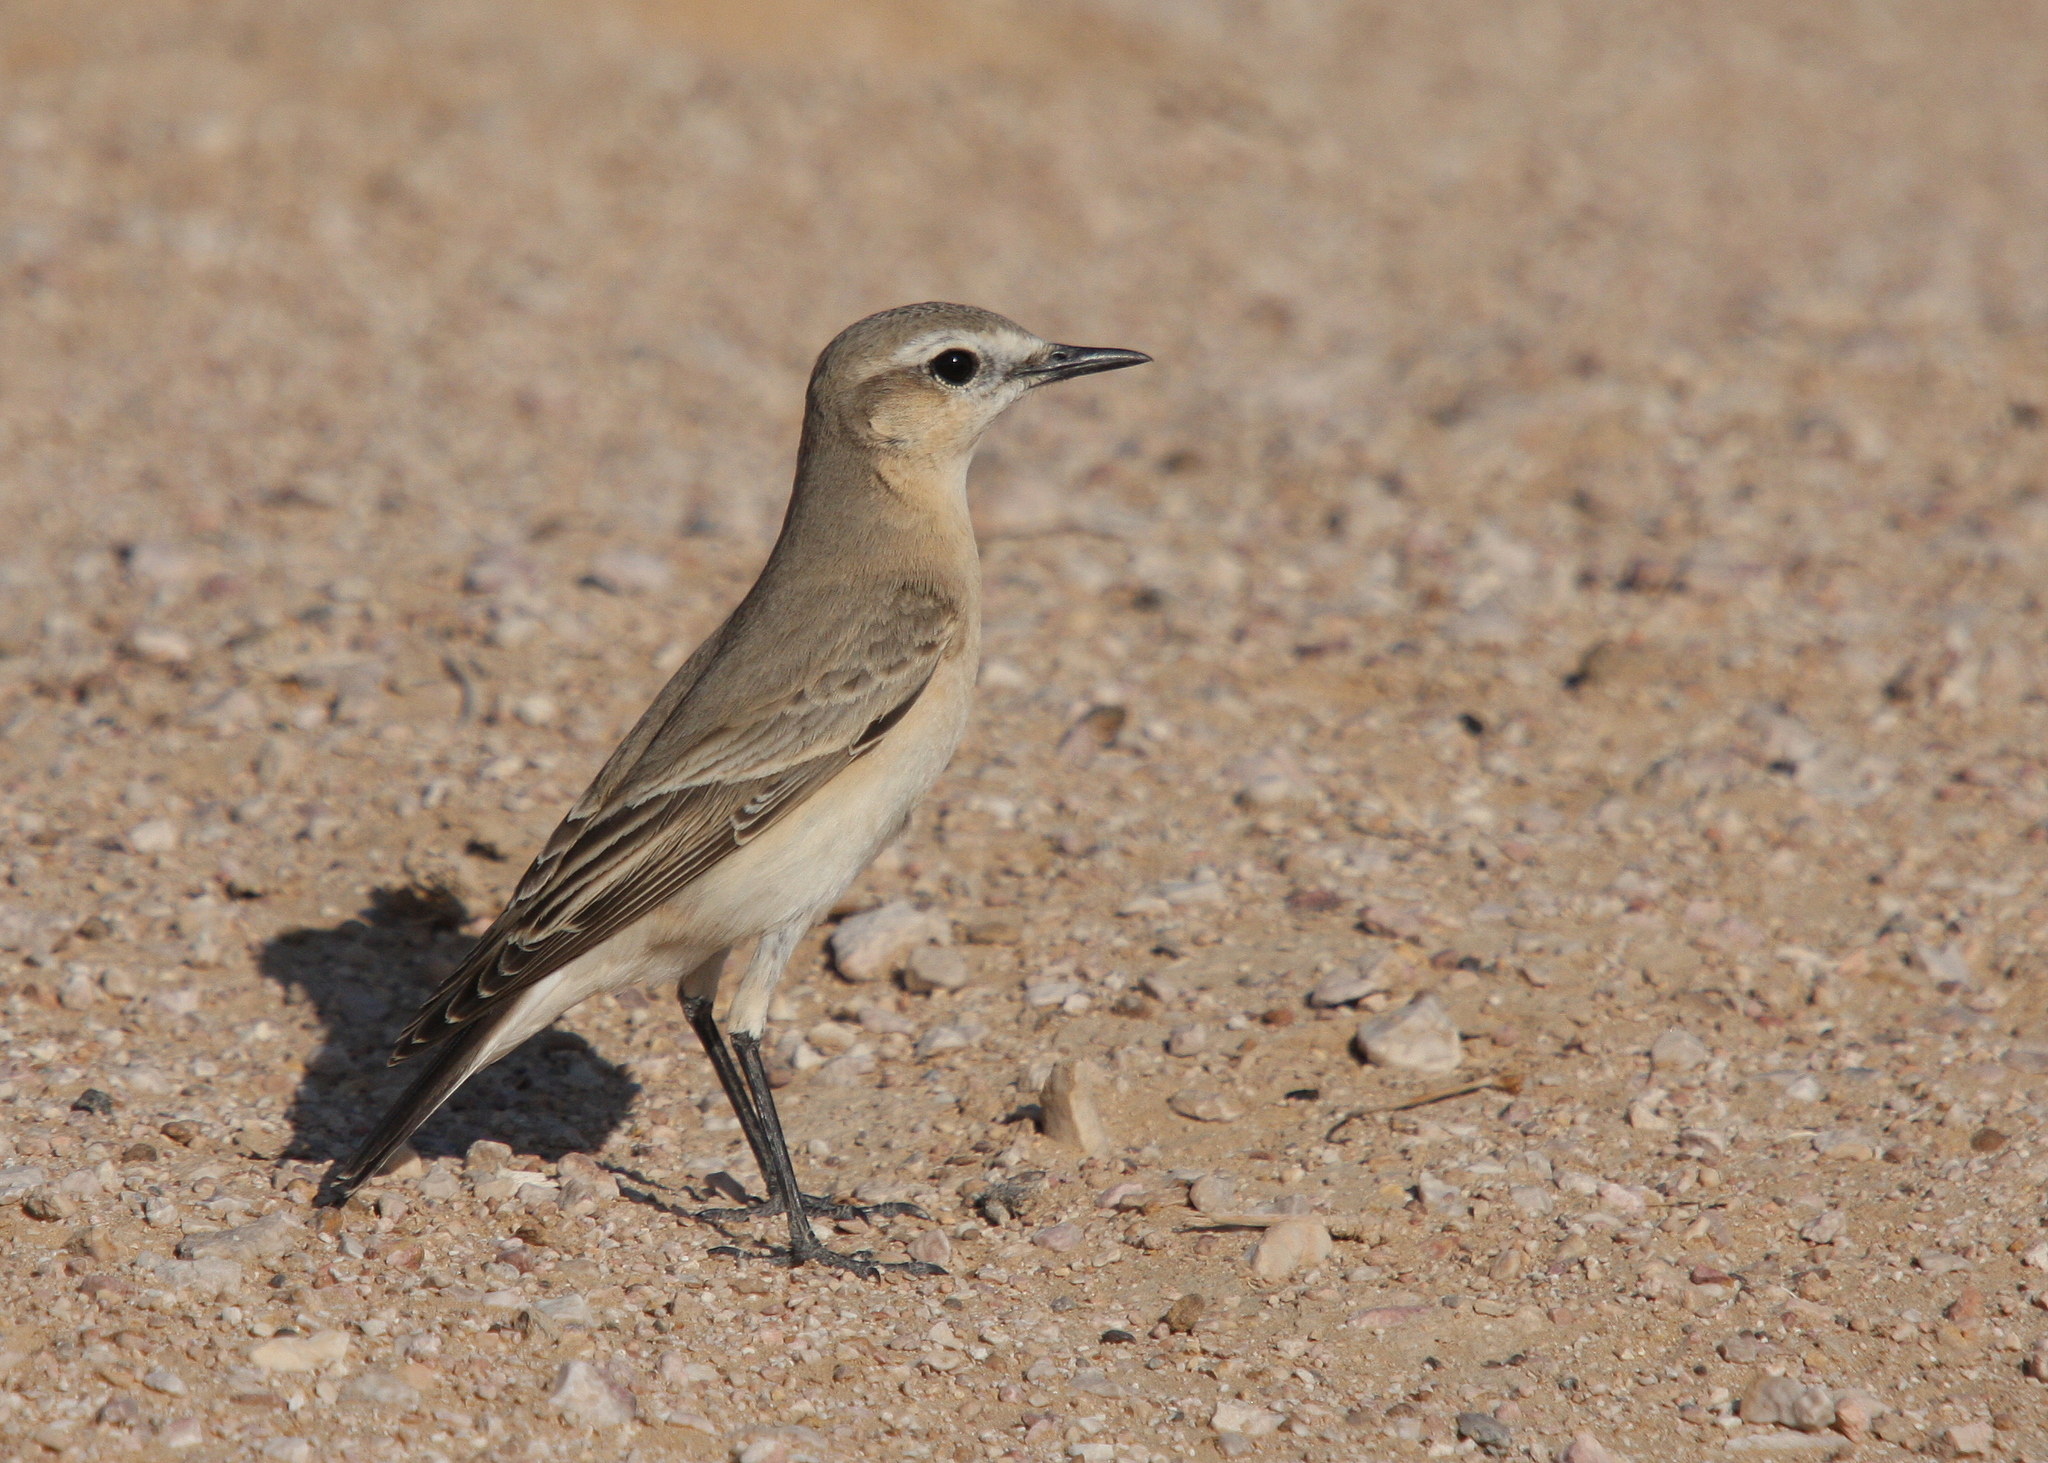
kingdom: Animalia
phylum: Chordata
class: Aves
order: Passeriformes
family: Muscicapidae
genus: Oenanthe
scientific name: Oenanthe isabellina
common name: Isabelline wheatear
